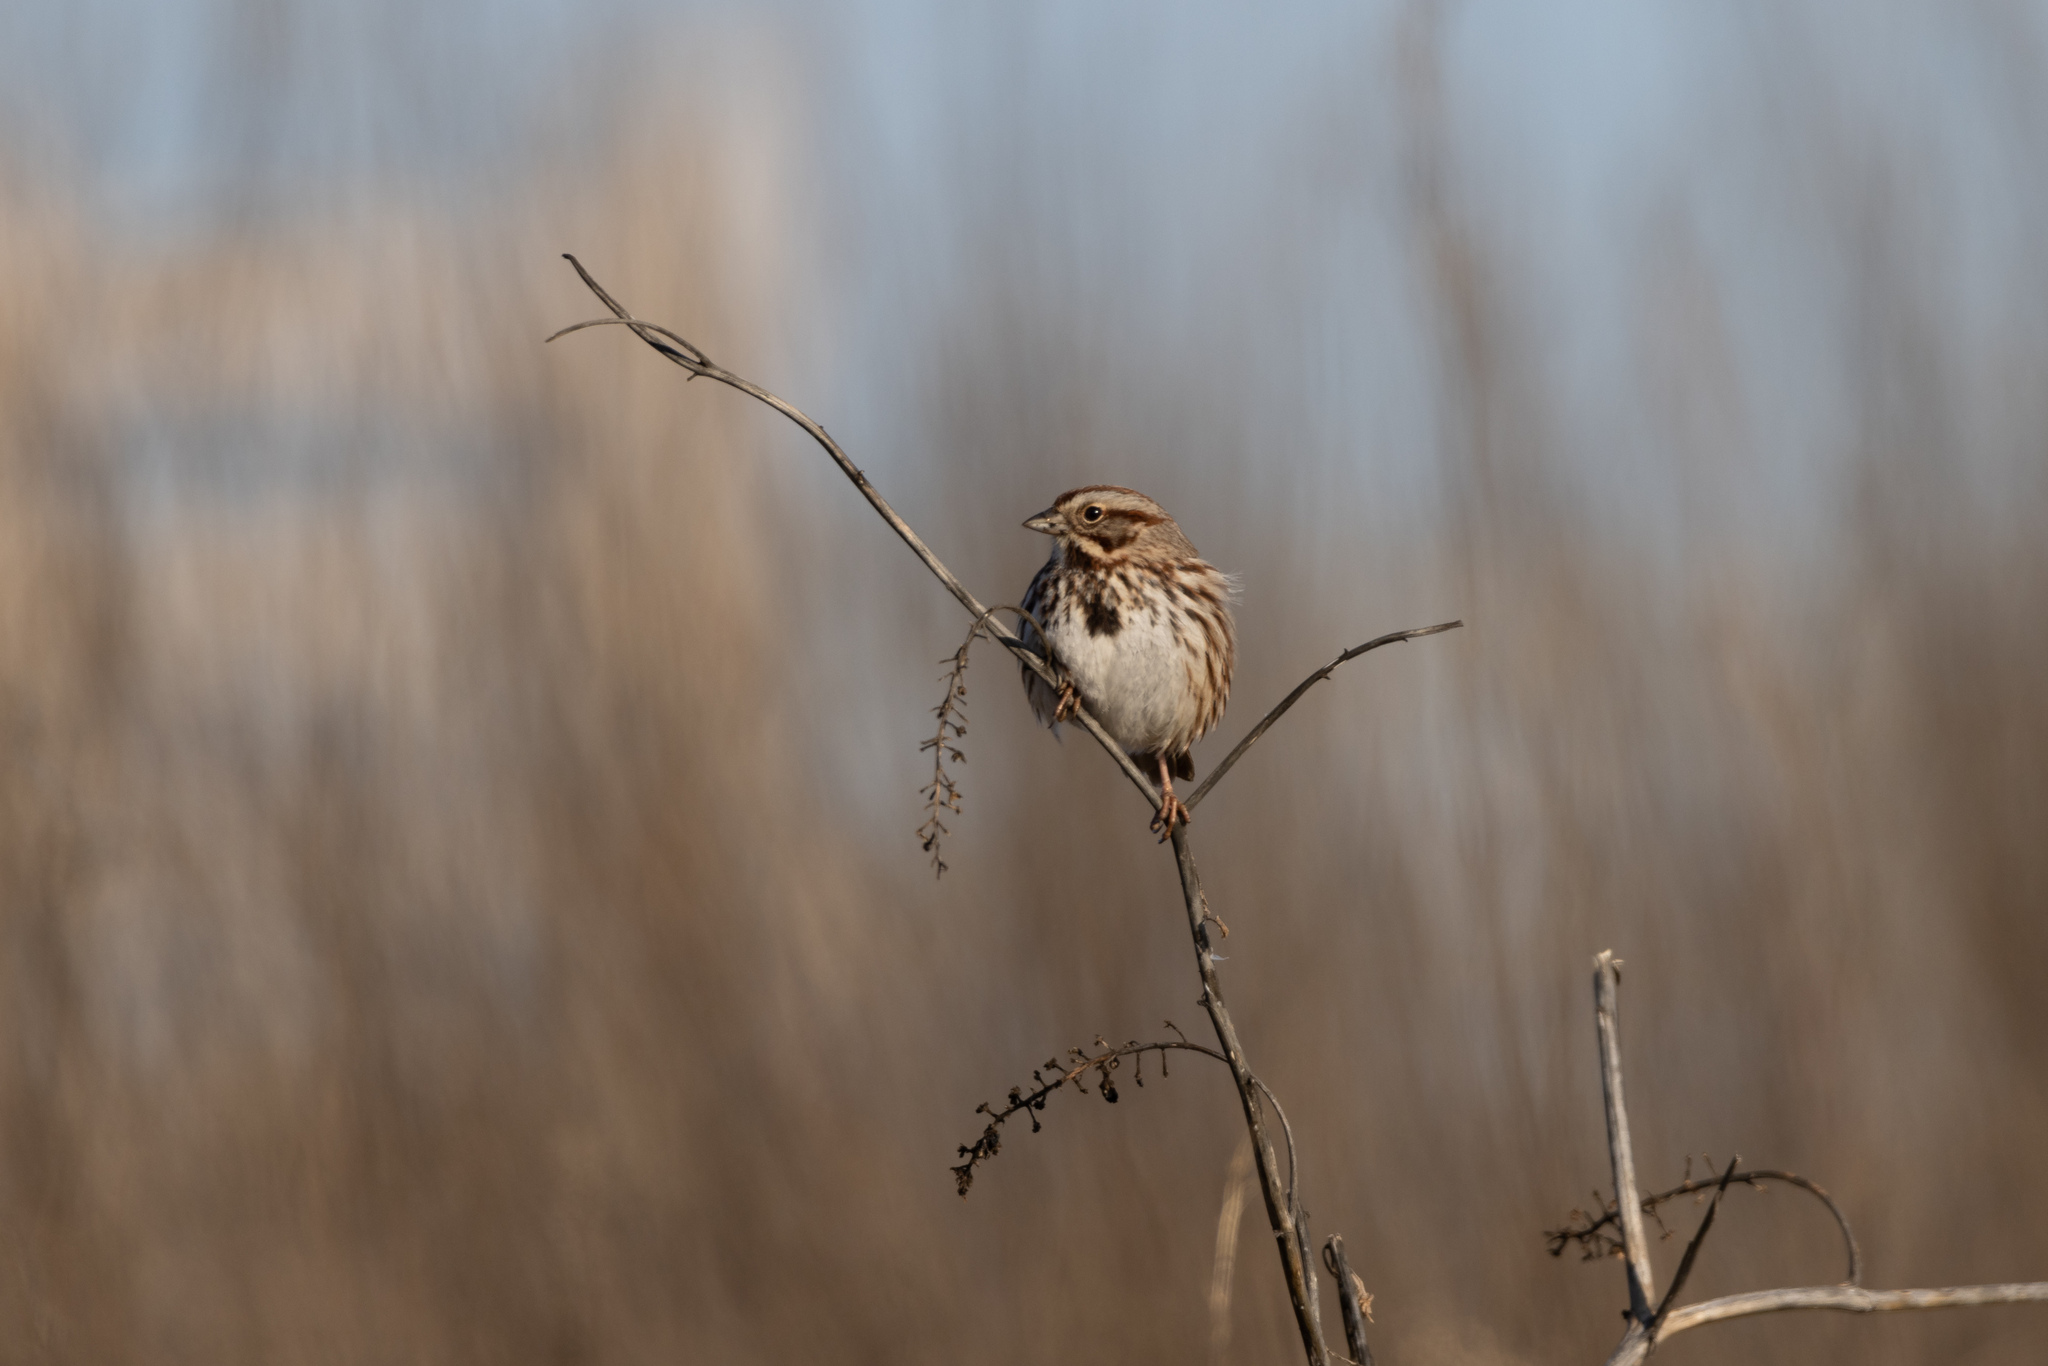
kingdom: Animalia
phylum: Chordata
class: Aves
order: Passeriformes
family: Passerellidae
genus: Melospiza
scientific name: Melospiza melodia
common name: Song sparrow
